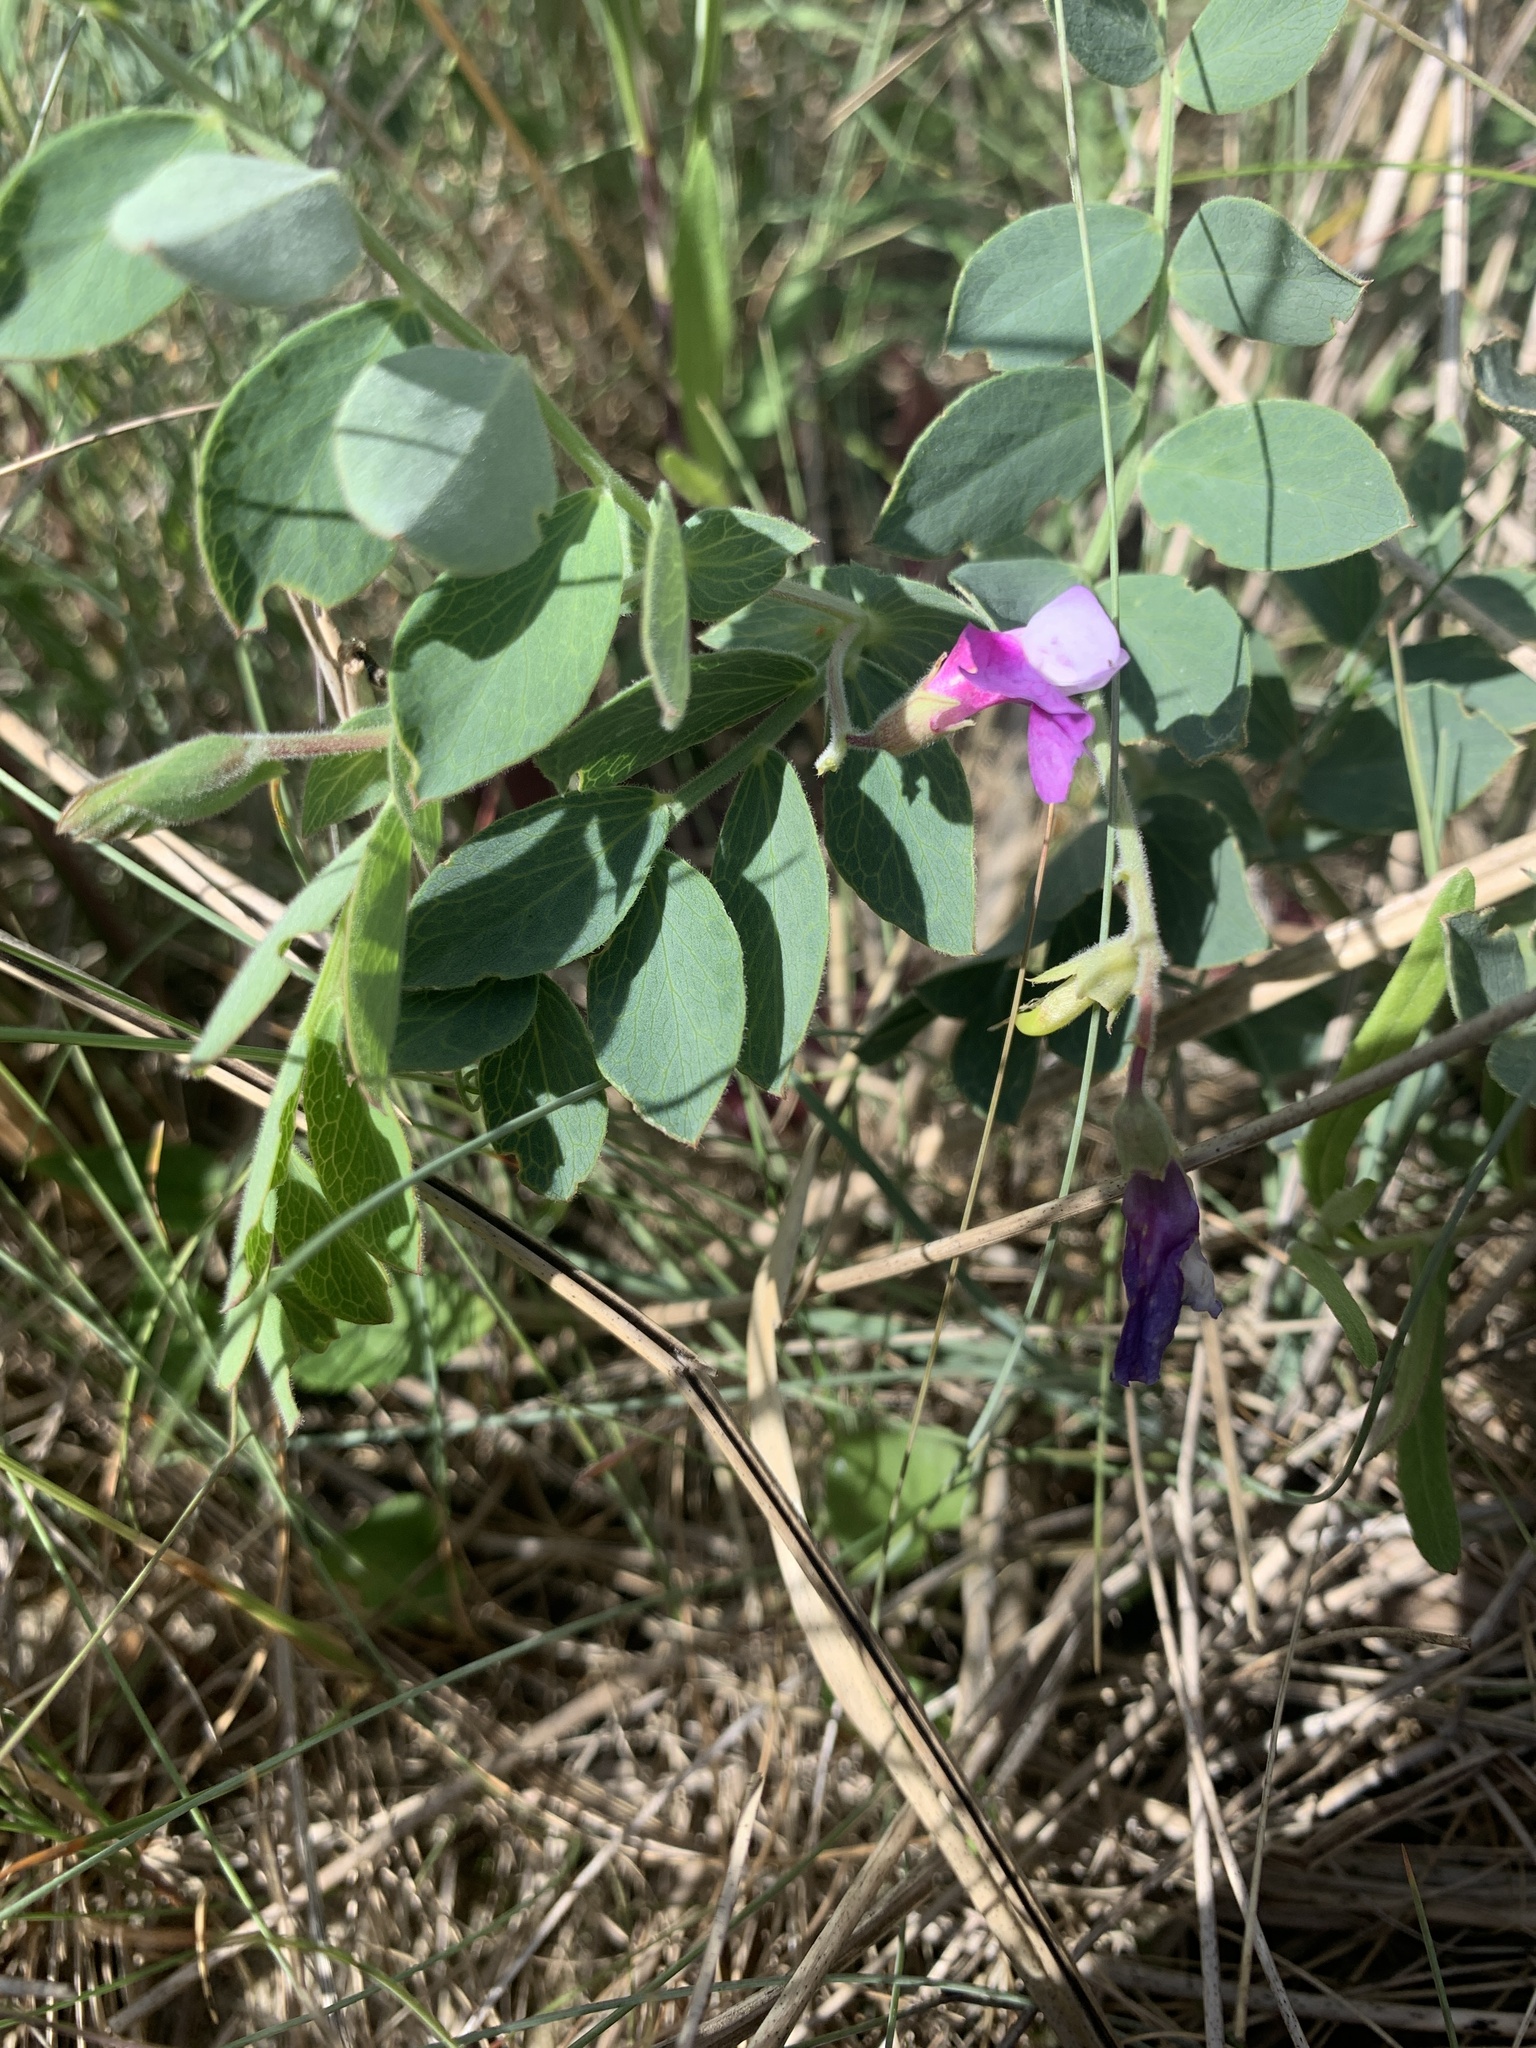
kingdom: Plantae
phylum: Tracheophyta
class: Magnoliopsida
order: Fabales
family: Fabaceae
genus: Lathyrus
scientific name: Lathyrus japonicus
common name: Sea pea
